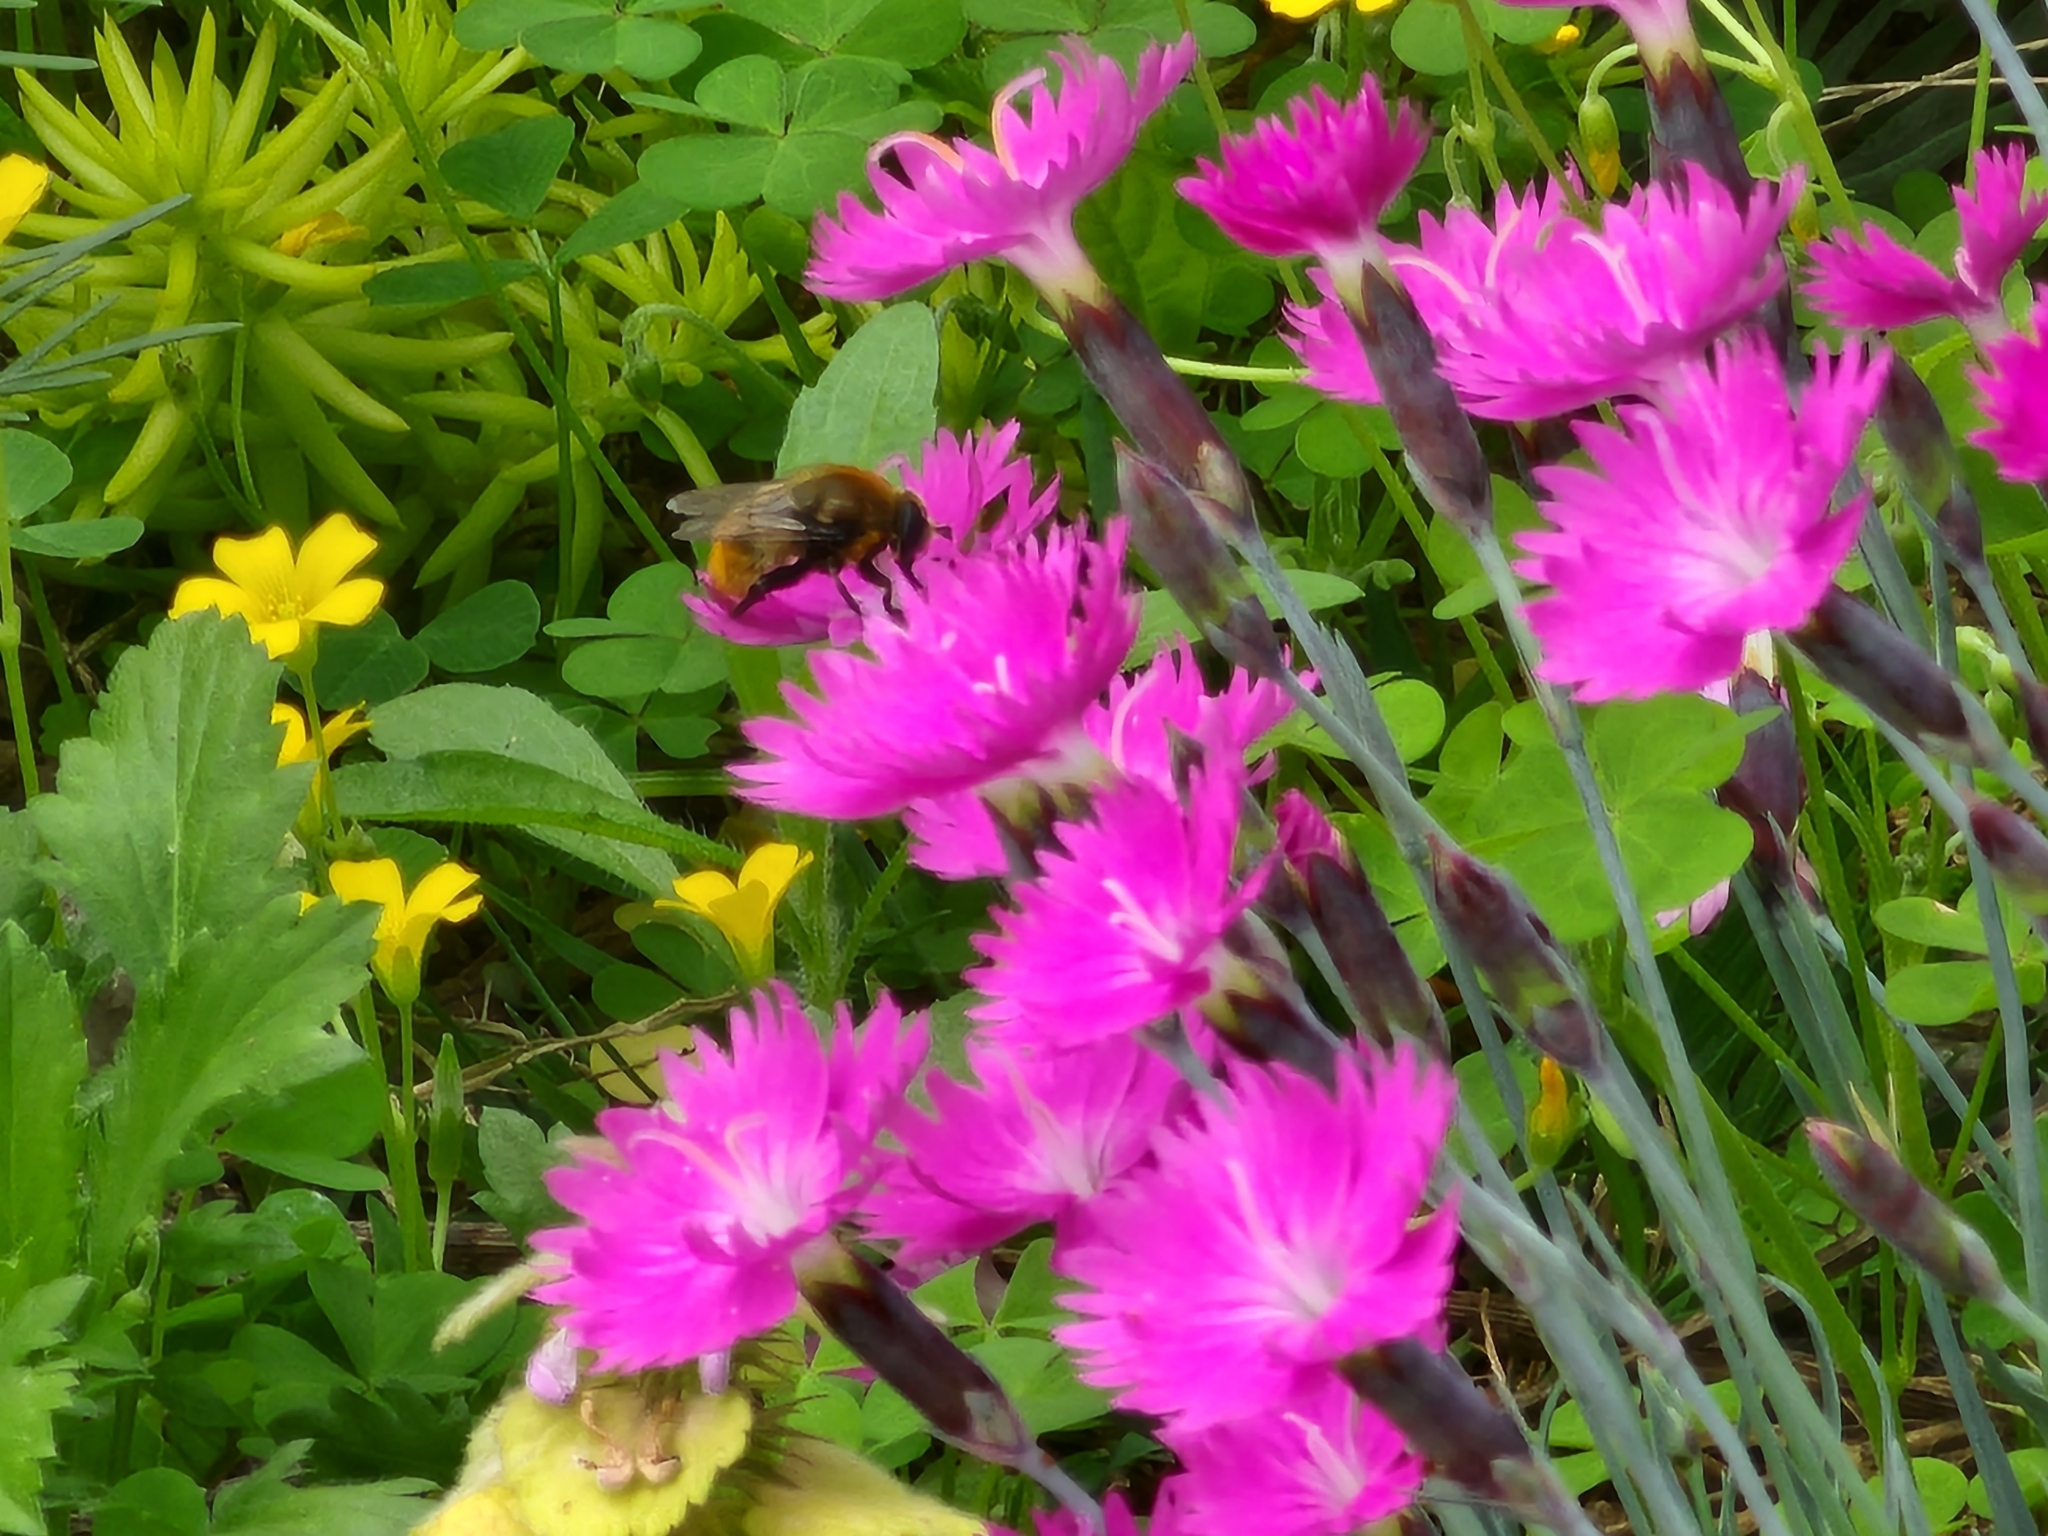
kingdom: Animalia
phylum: Arthropoda
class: Insecta
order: Diptera
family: Syrphidae
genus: Merodon
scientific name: Merodon equestris
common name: Greater bulb-fly
